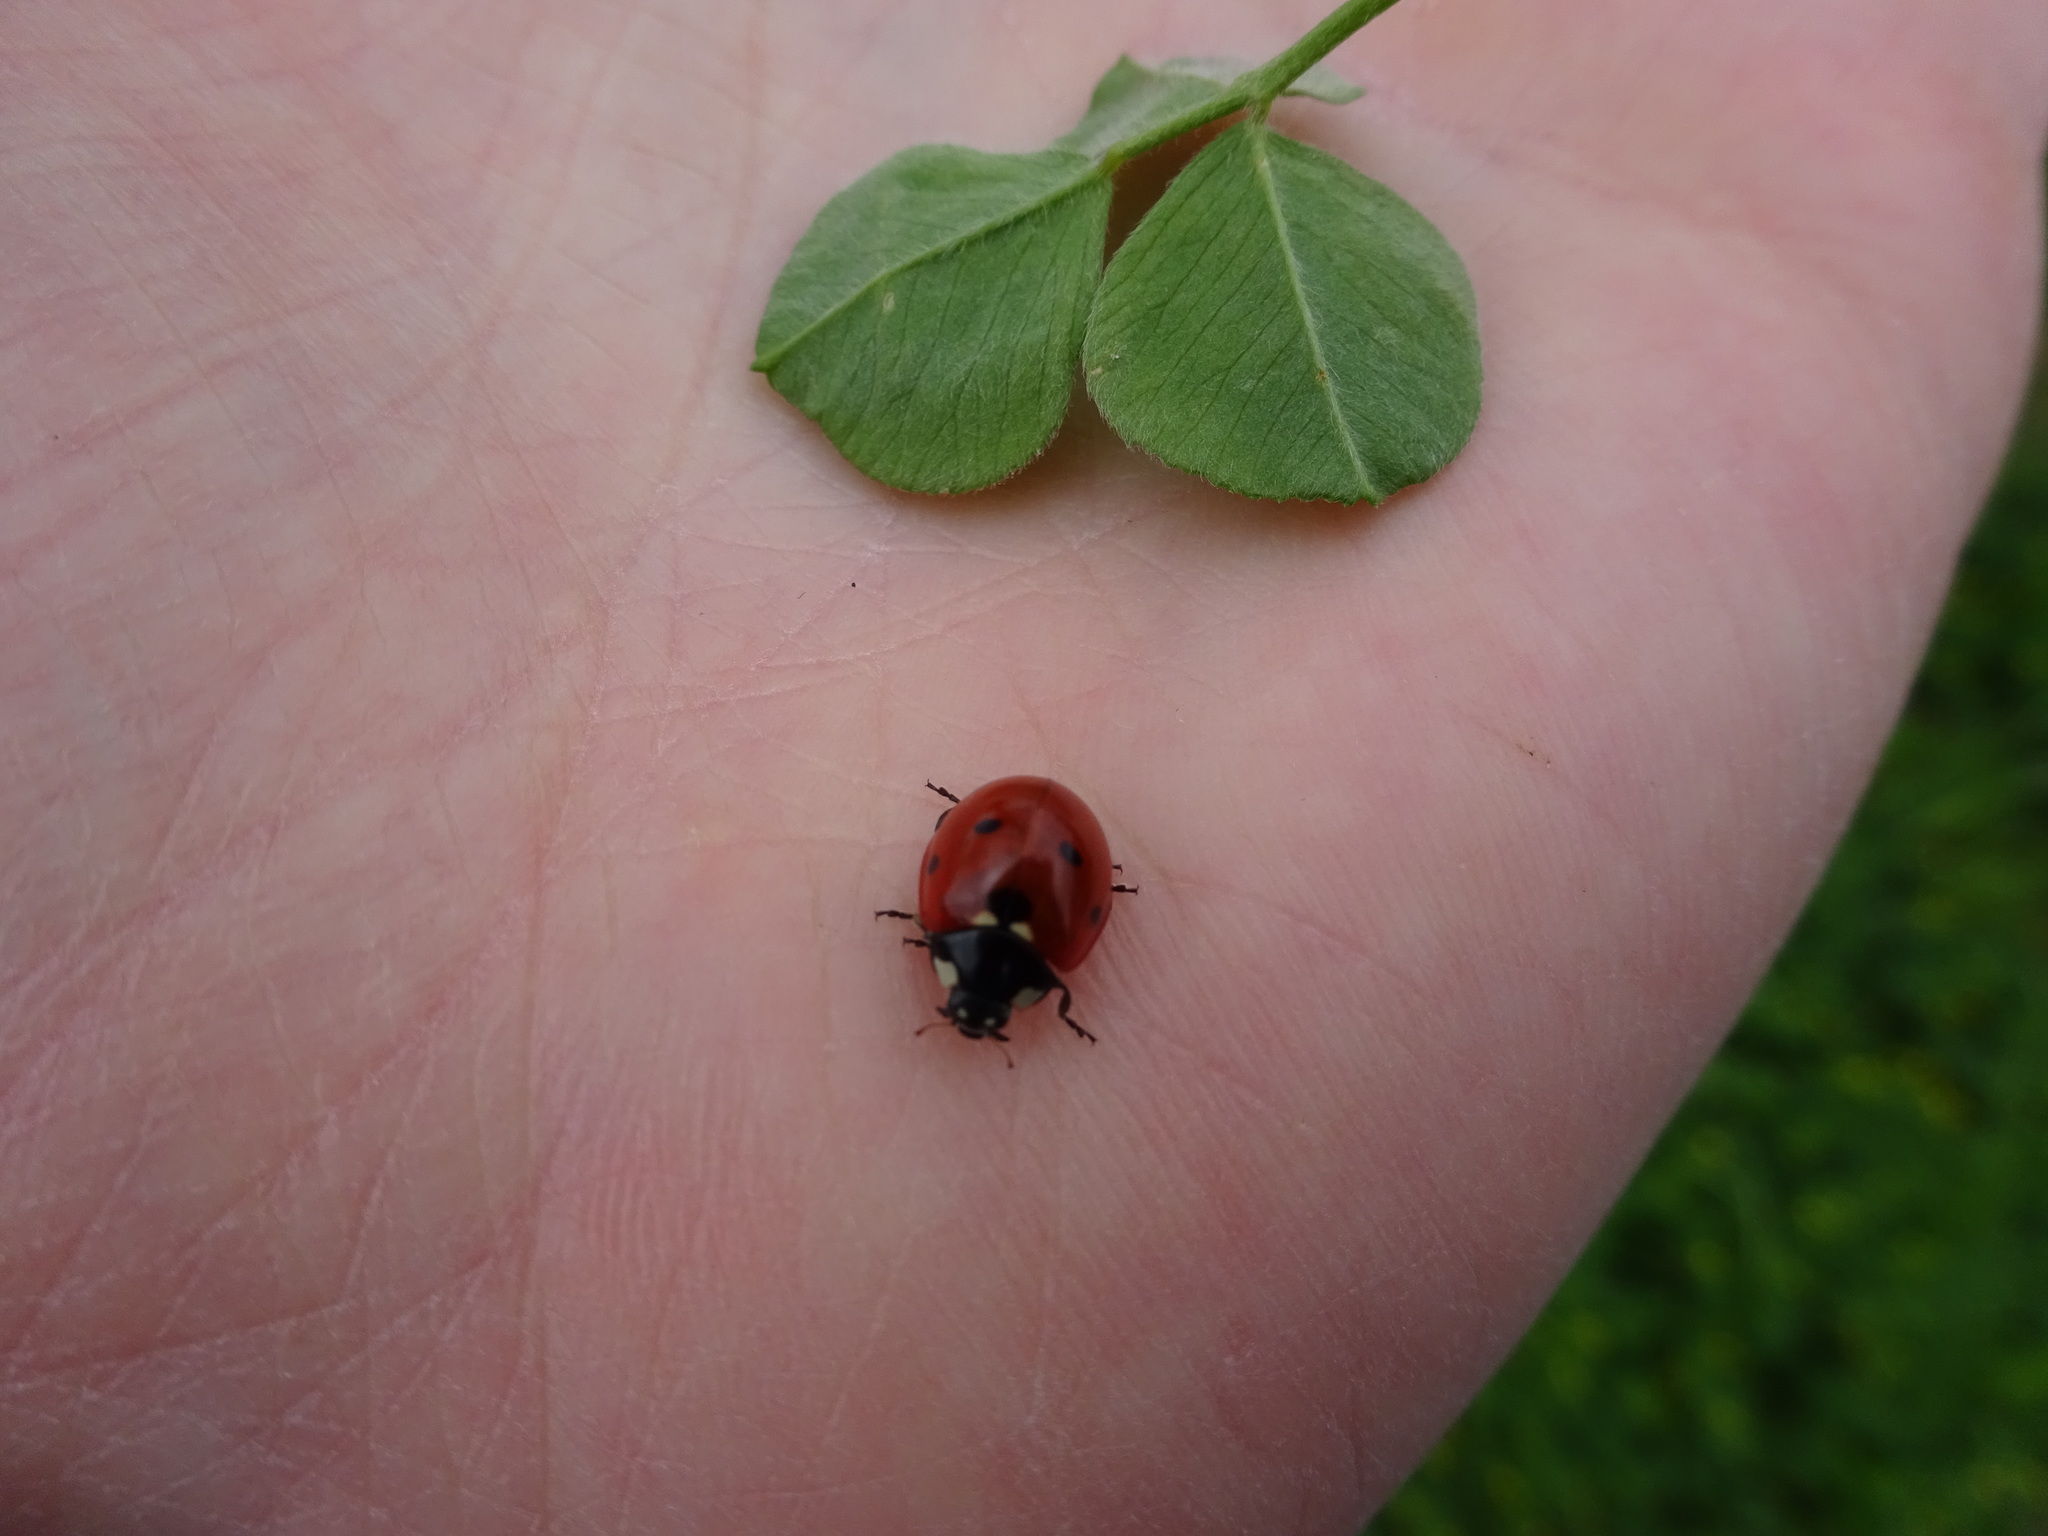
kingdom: Animalia
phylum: Arthropoda
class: Insecta
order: Coleoptera
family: Coccinellidae
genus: Coccinella
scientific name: Coccinella septempunctata
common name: Sevenspotted lady beetle
